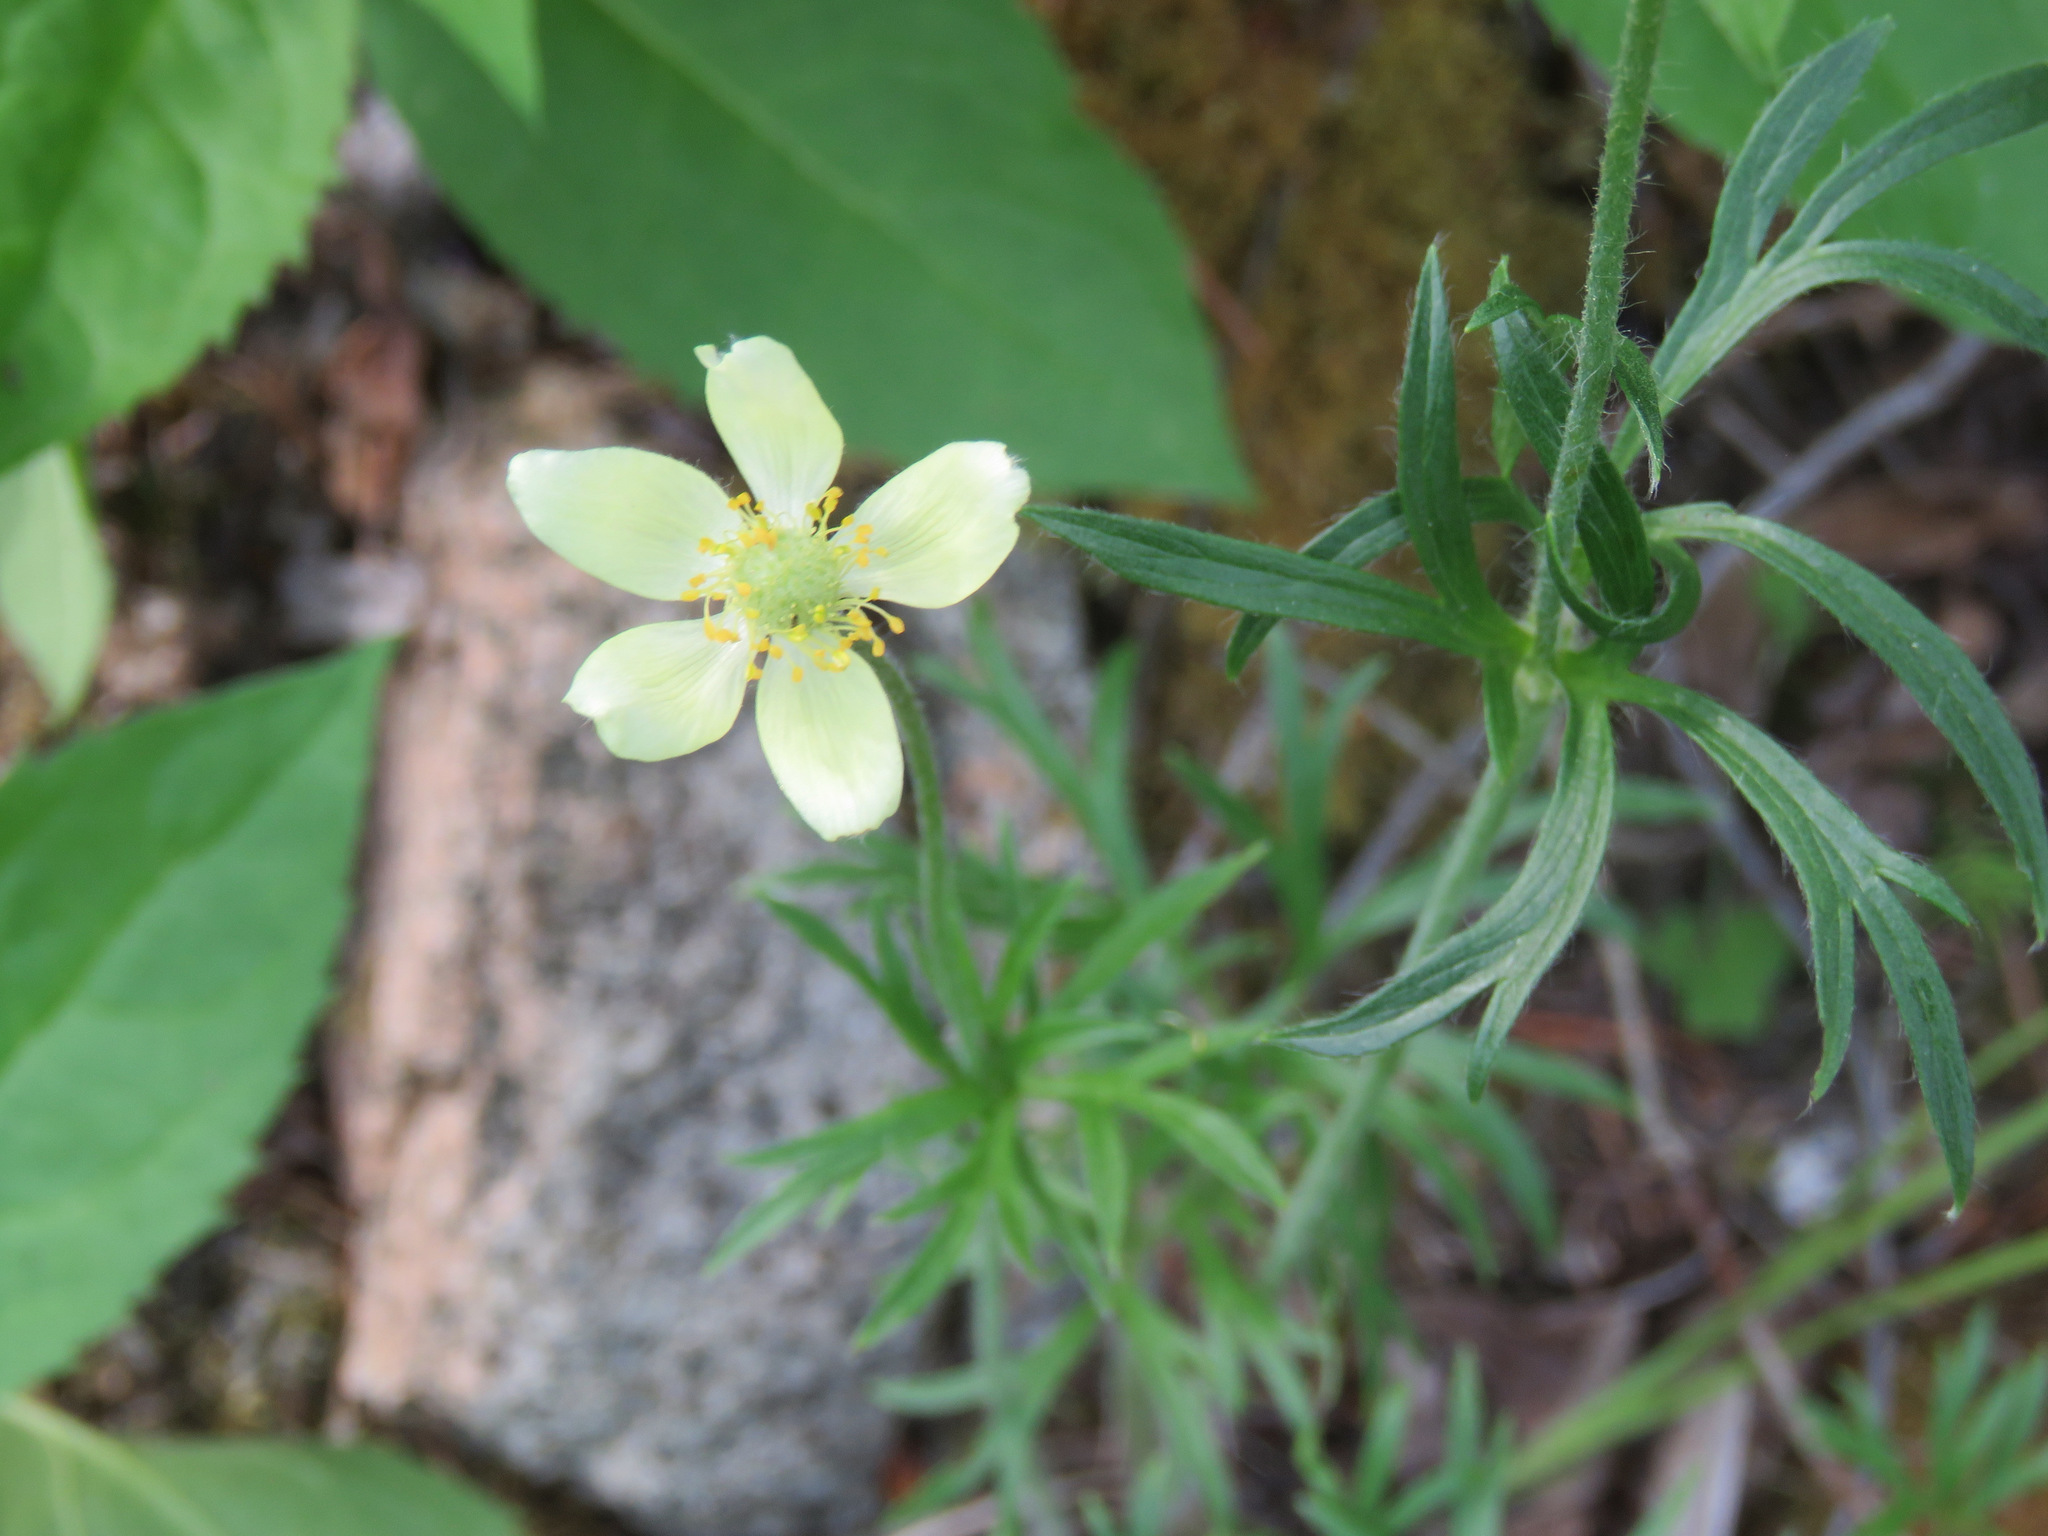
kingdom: Plantae
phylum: Tracheophyta
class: Magnoliopsida
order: Ranunculales
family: Ranunculaceae
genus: Anemone
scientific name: Anemone multifida
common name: Bird's-foot anemone
